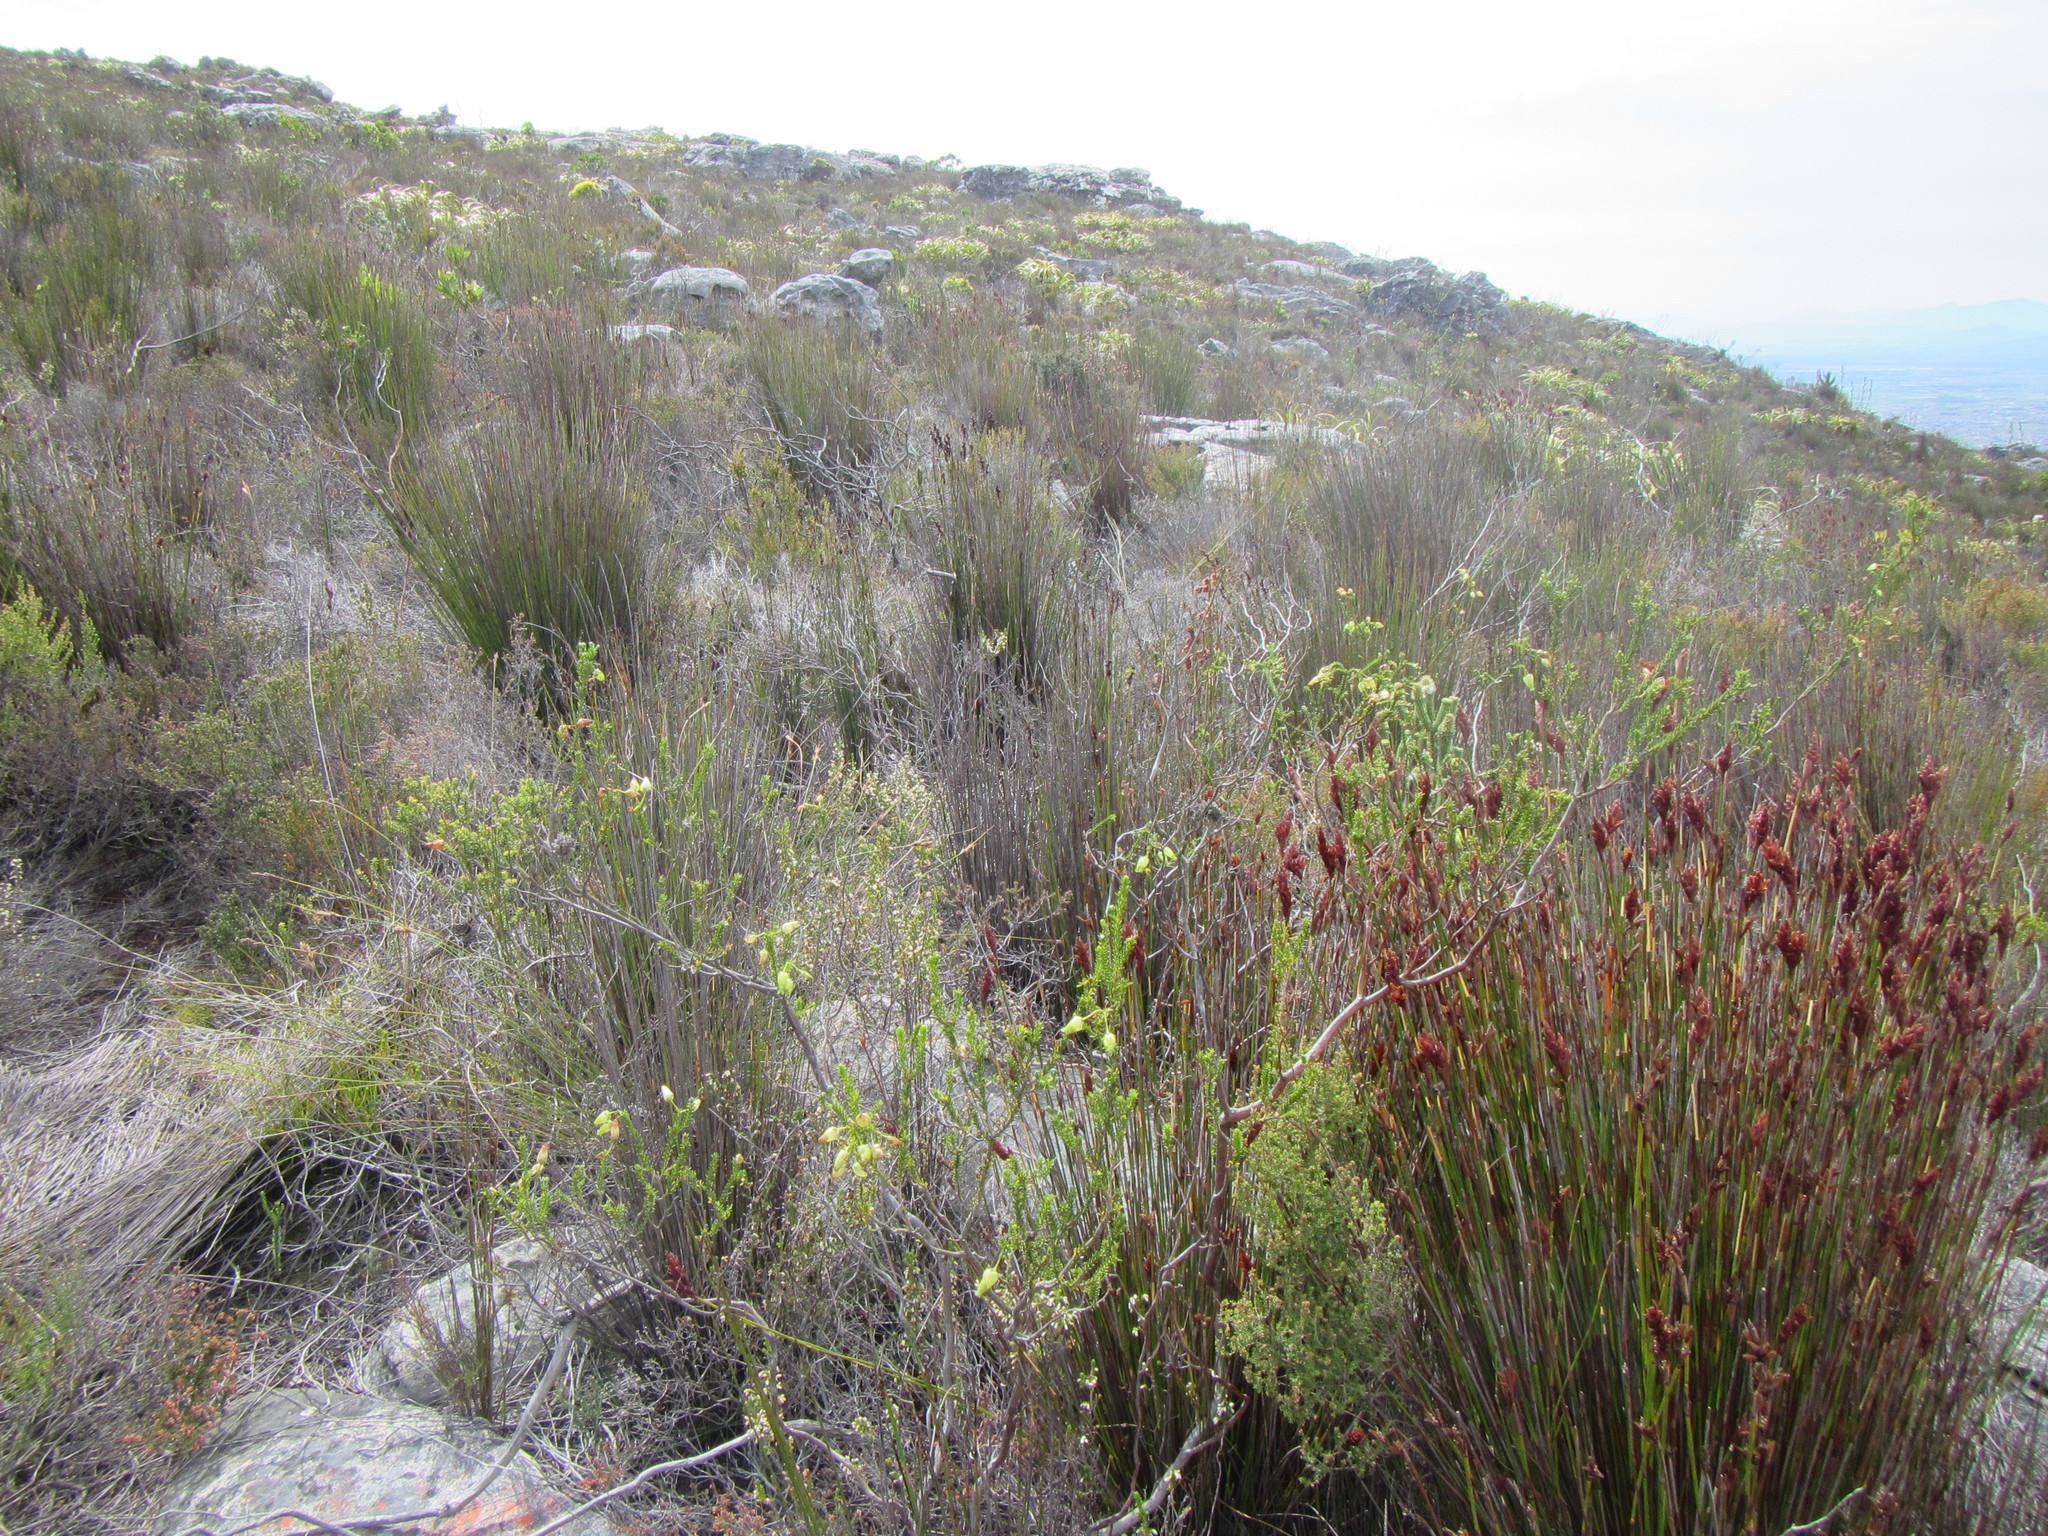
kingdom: Plantae
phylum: Tracheophyta
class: Magnoliopsida
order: Ericales
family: Ericaceae
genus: Erica
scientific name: Erica urna-viridis
